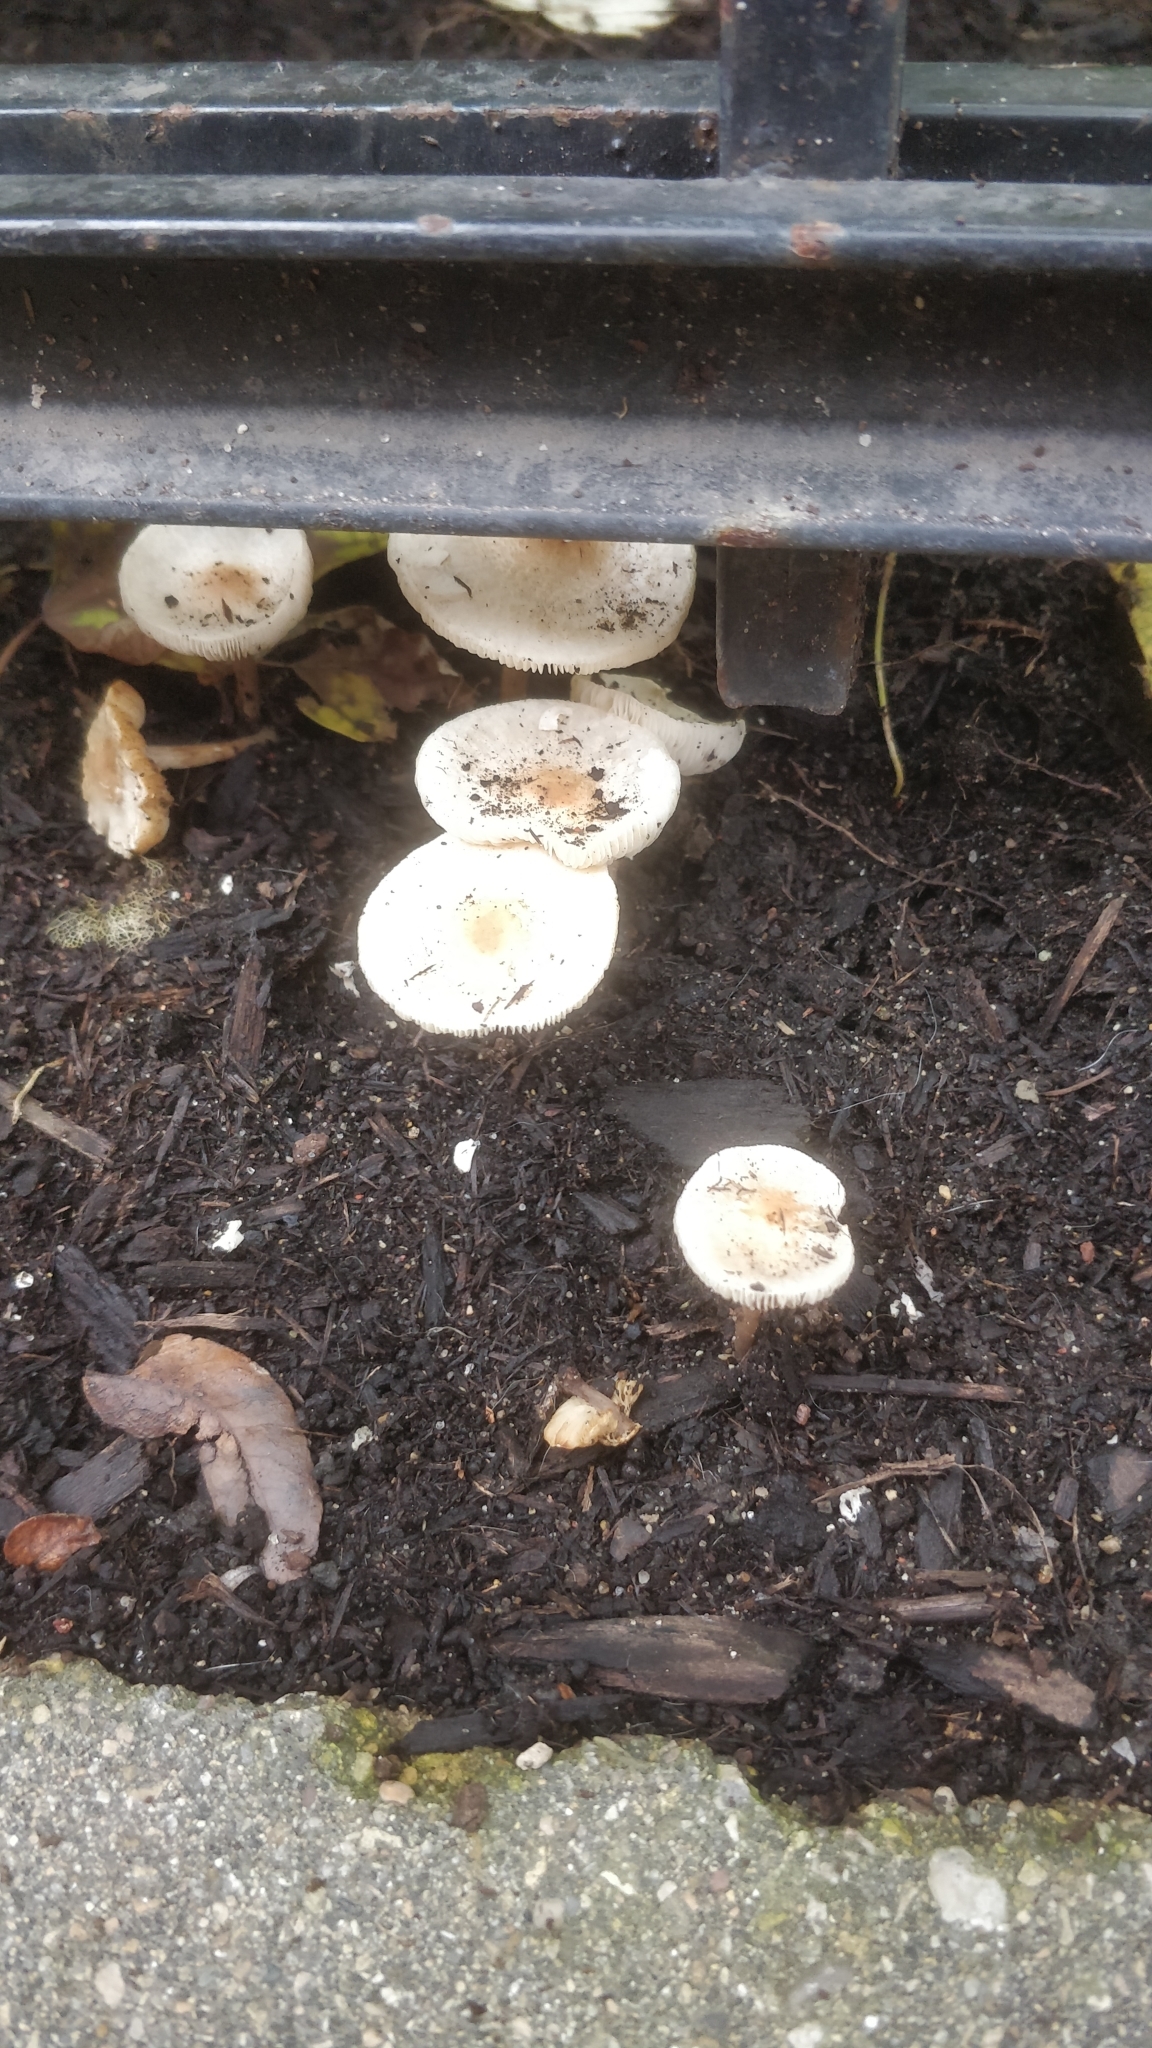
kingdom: Fungi
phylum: Basidiomycota
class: Agaricomycetes
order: Agaricales
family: Agaricaceae
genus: Lepiota
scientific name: Lepiota cristata
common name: Stinking dapperling
